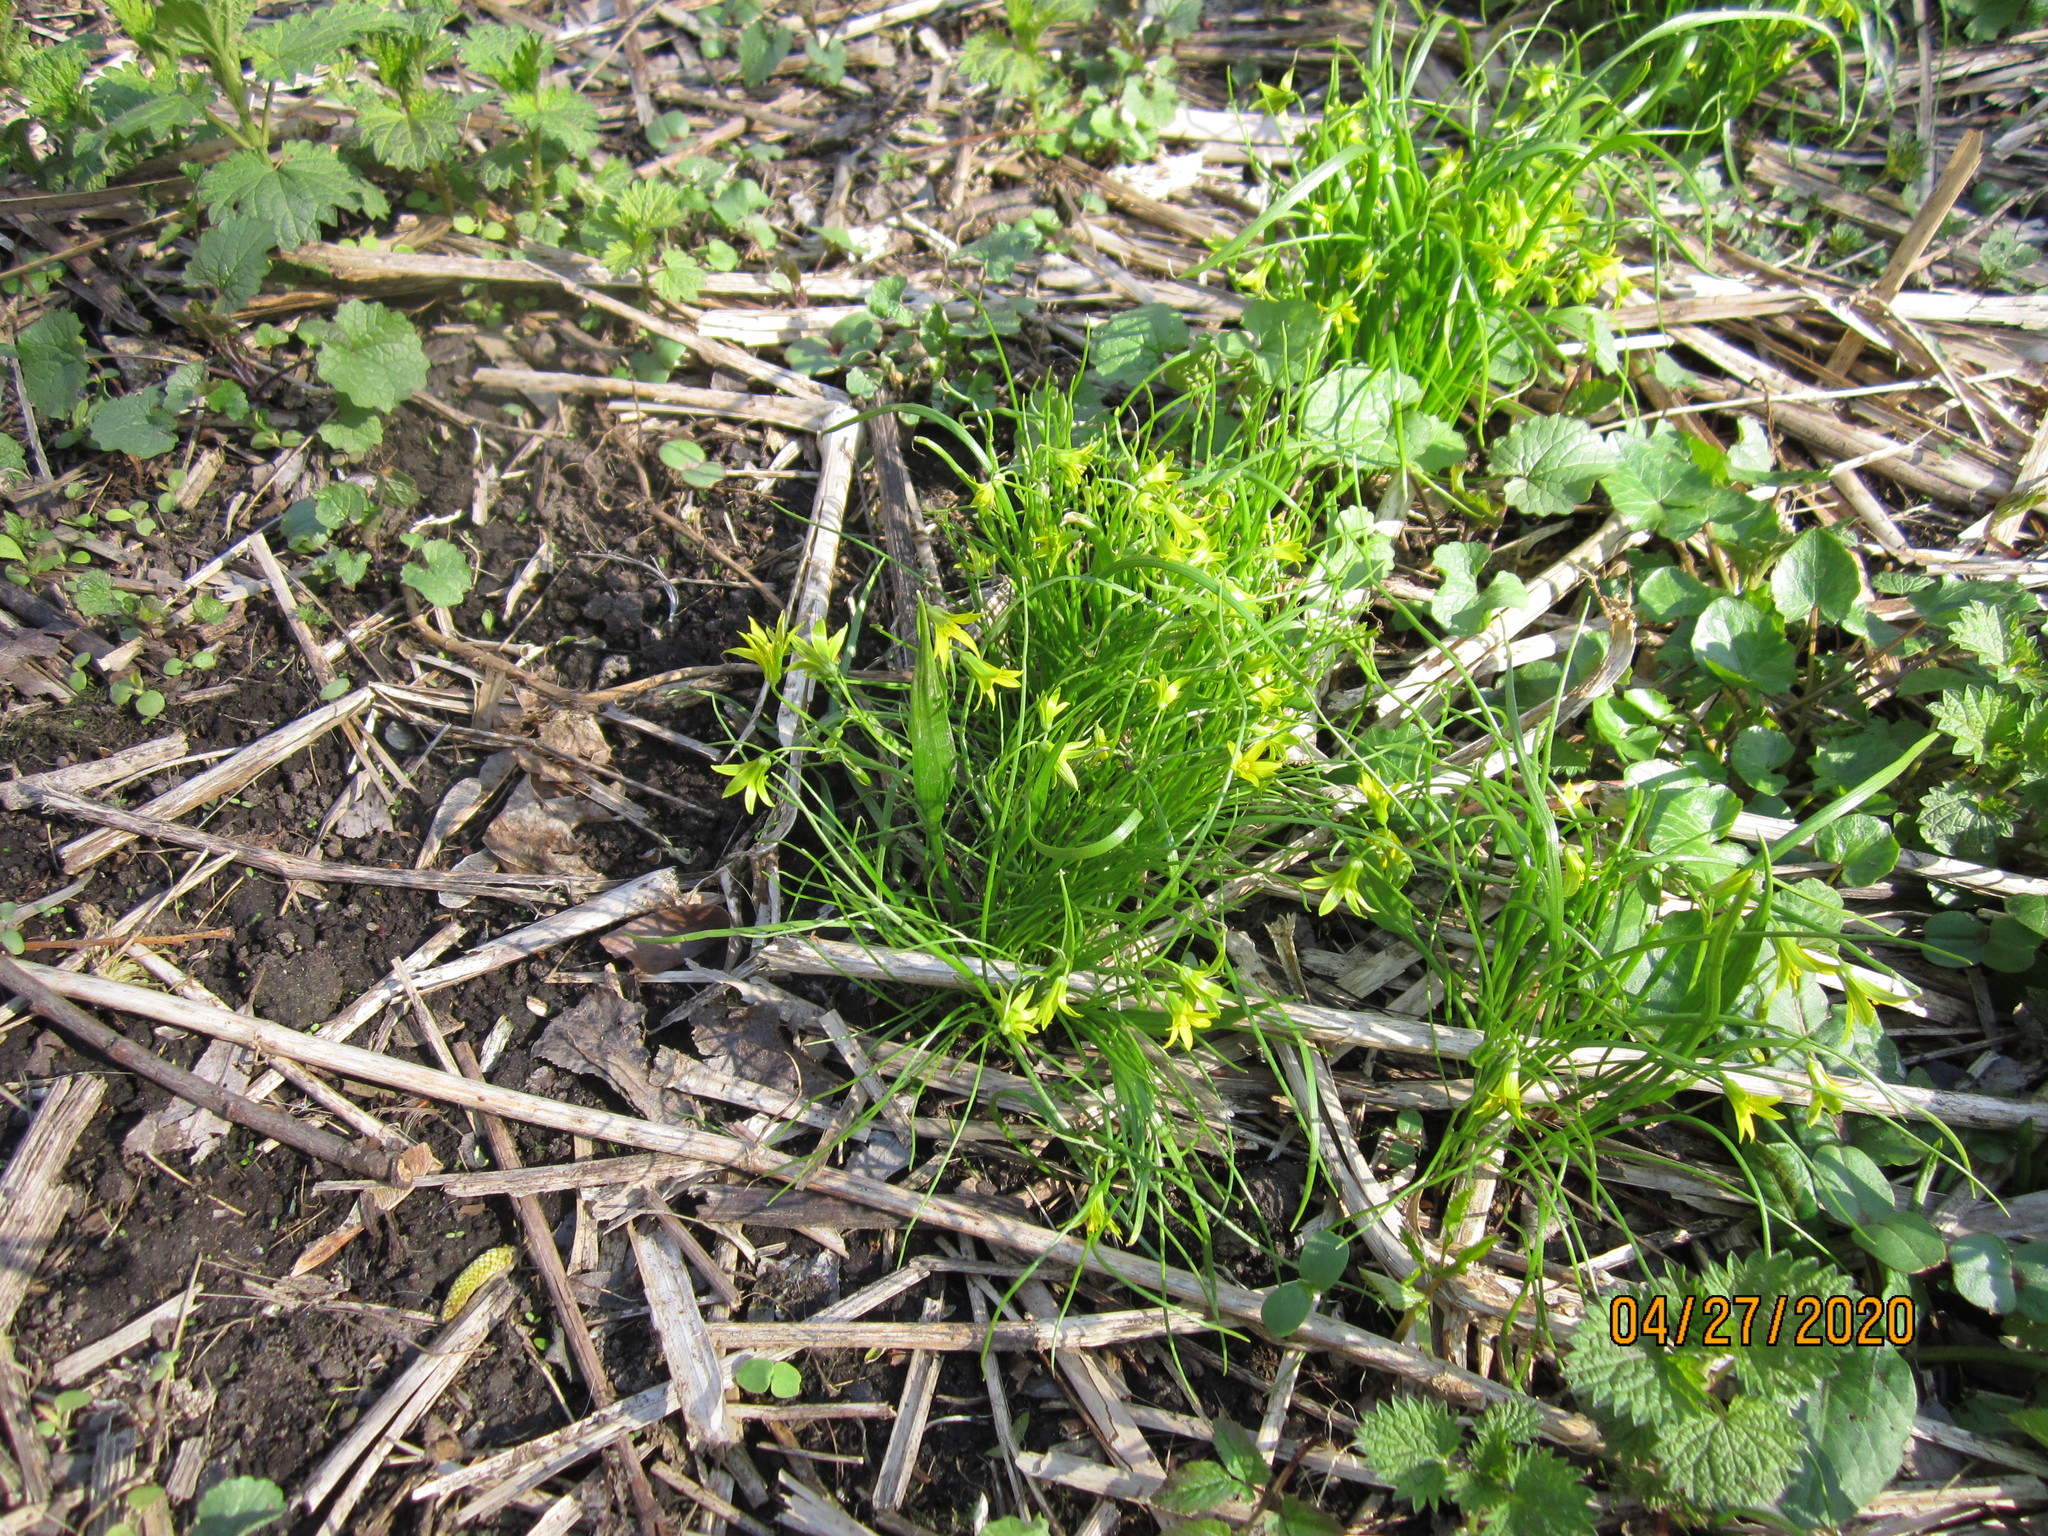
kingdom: Plantae
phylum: Tracheophyta
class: Liliopsida
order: Liliales
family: Liliaceae
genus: Gagea
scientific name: Gagea minima
